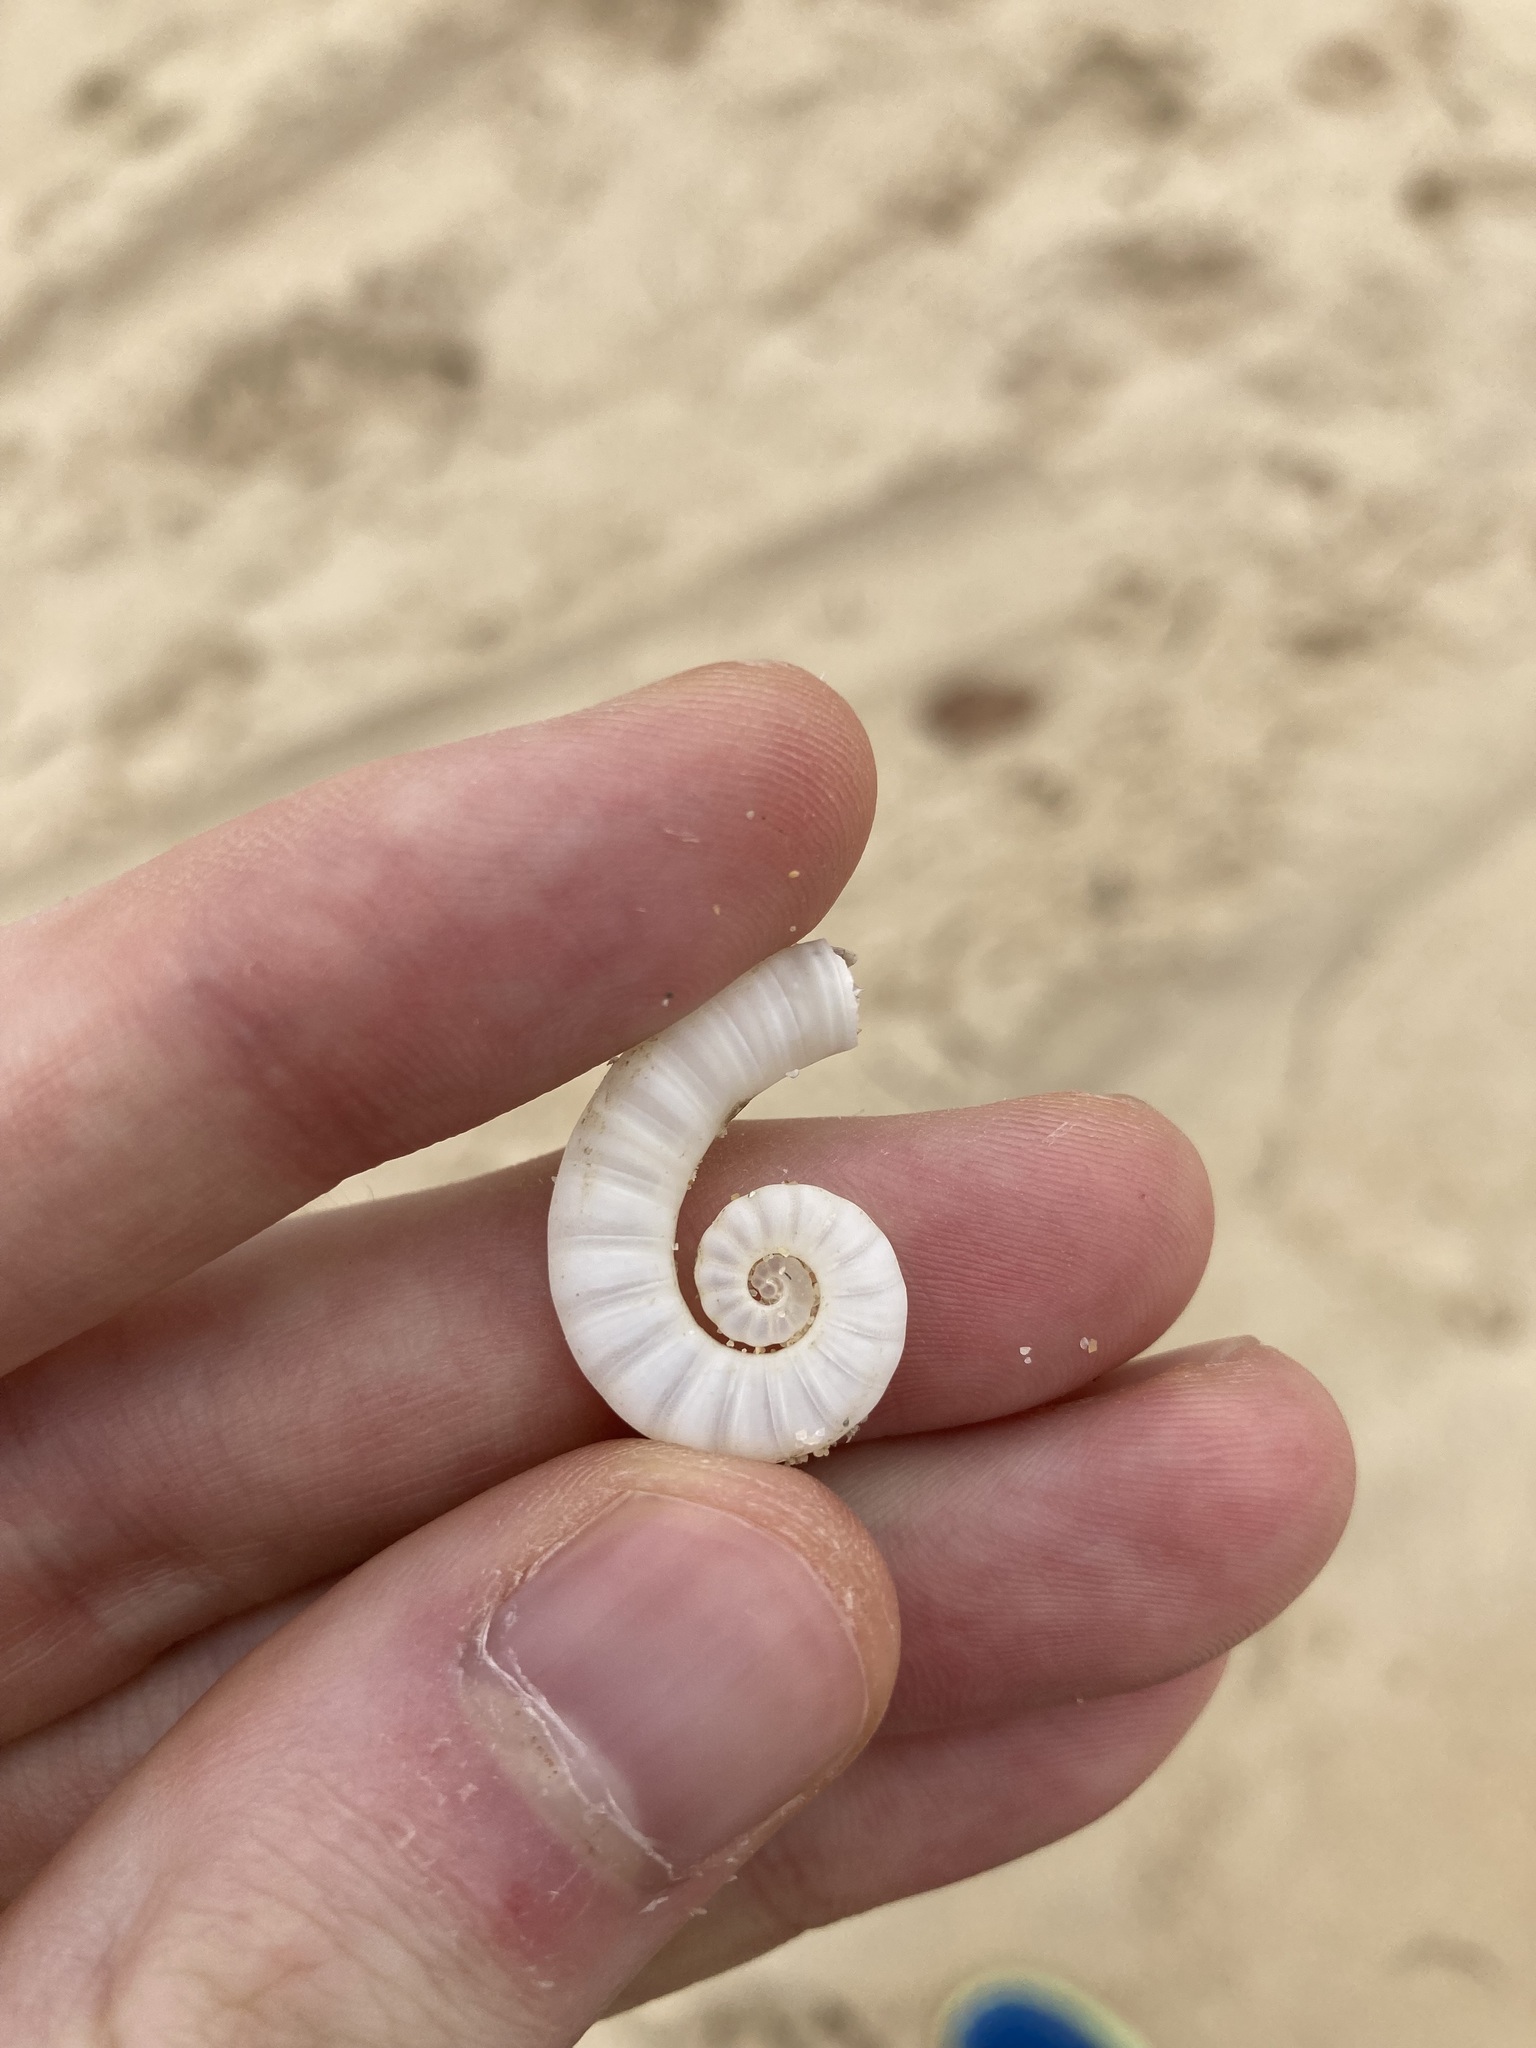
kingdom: Animalia
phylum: Mollusca
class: Cephalopoda
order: Spirulida
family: Spirulidae
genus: Spirula
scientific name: Spirula spirula
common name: Ram's horn squid
